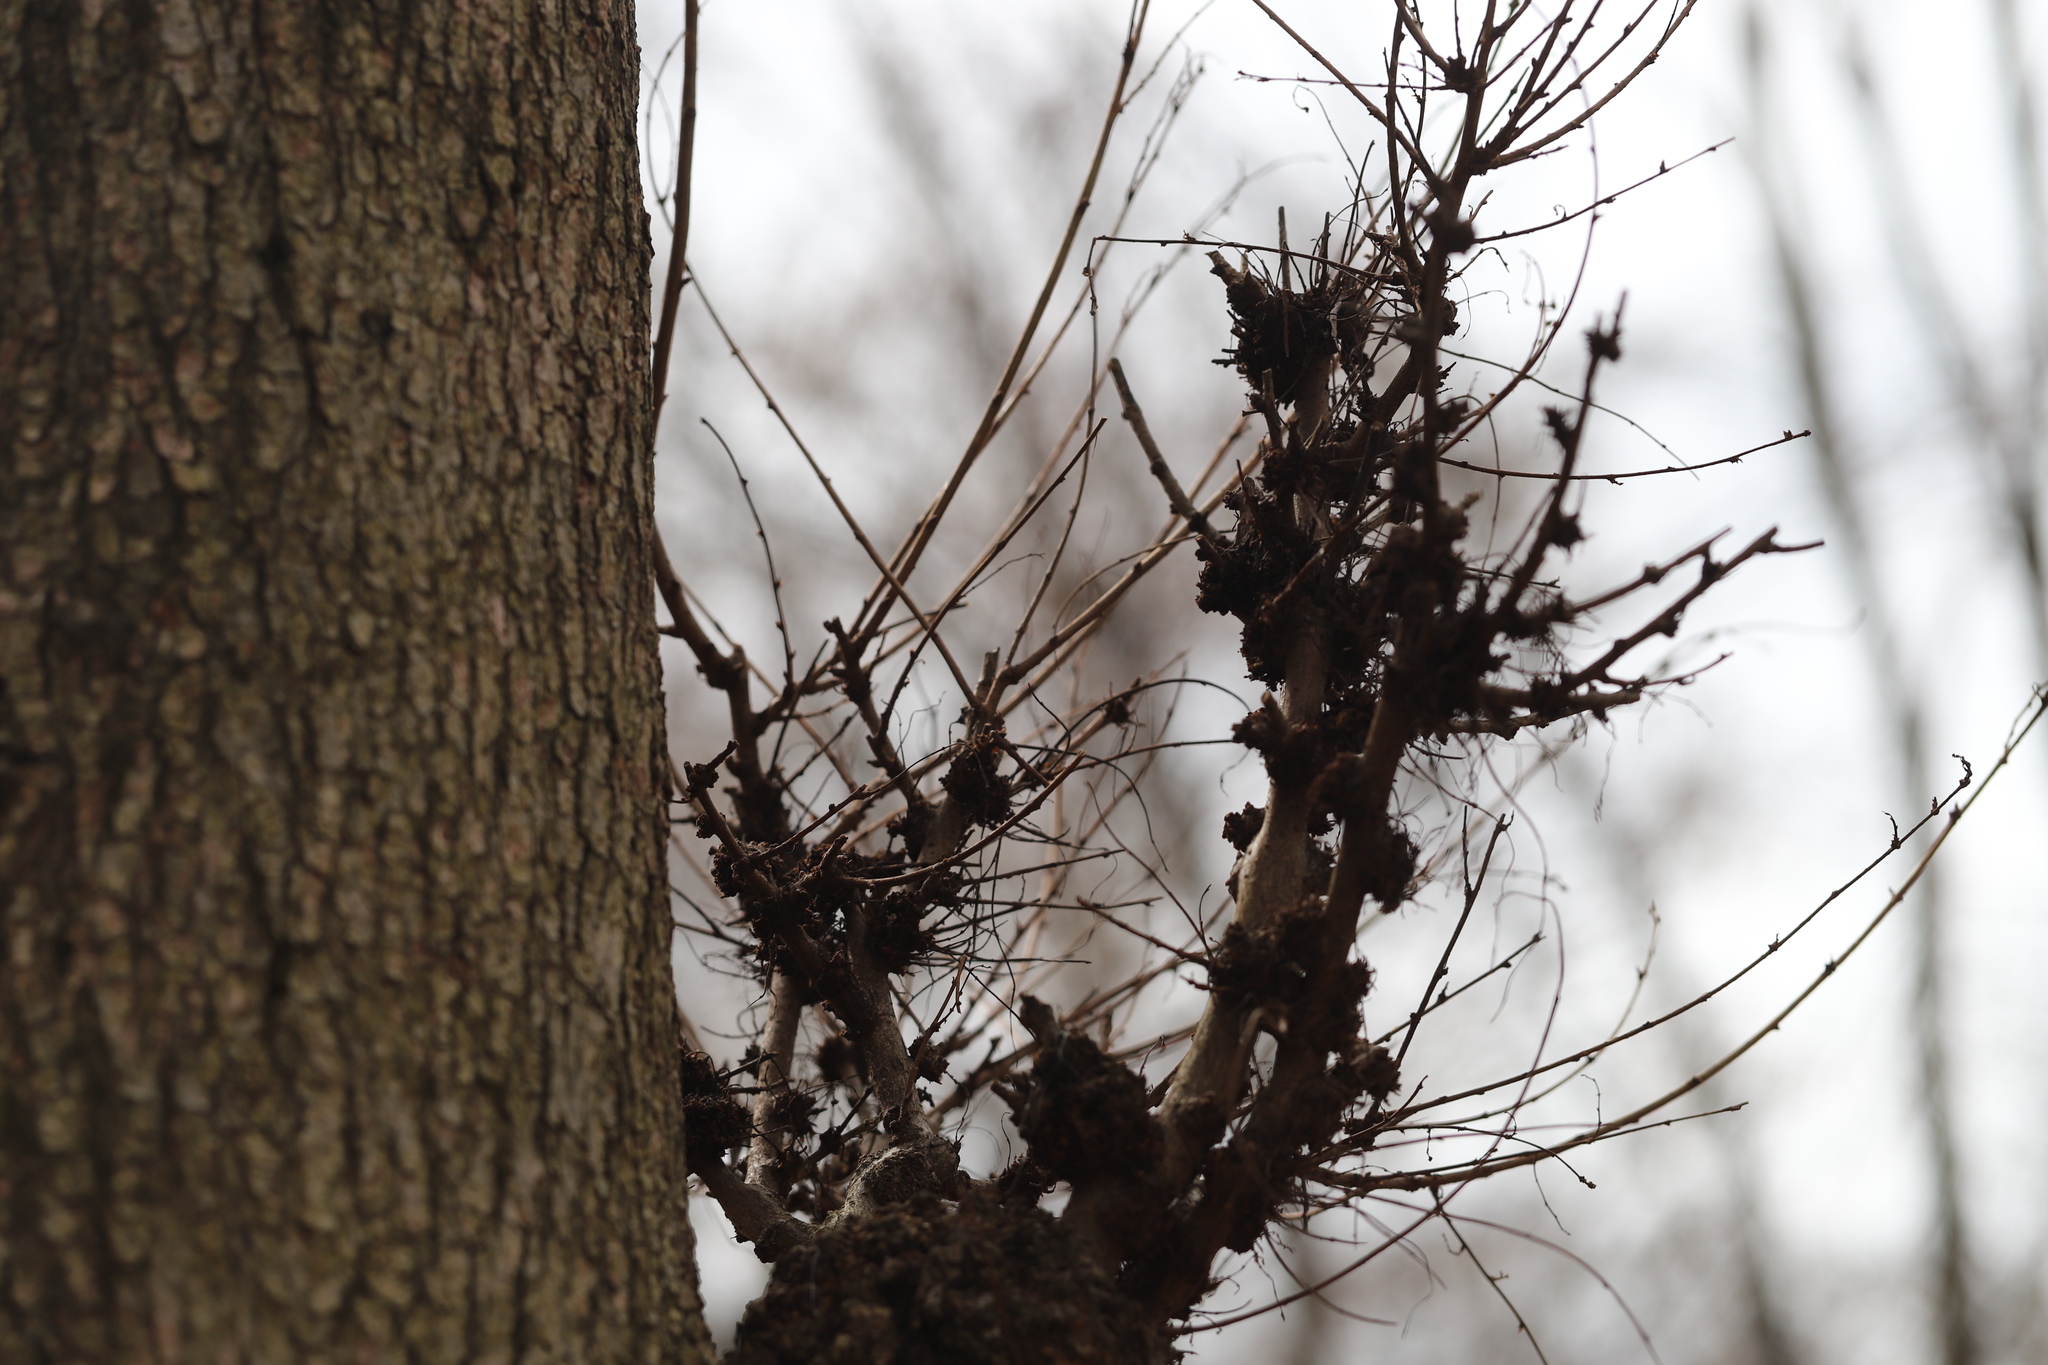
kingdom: Bacteria
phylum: Proteobacteria
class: Alphaproteobacteria
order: Rhizobiales
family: Rhizobiaceae
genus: Rhizobium
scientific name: Rhizobium Agrobacterium radiobacter
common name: Bacterial crown gall
